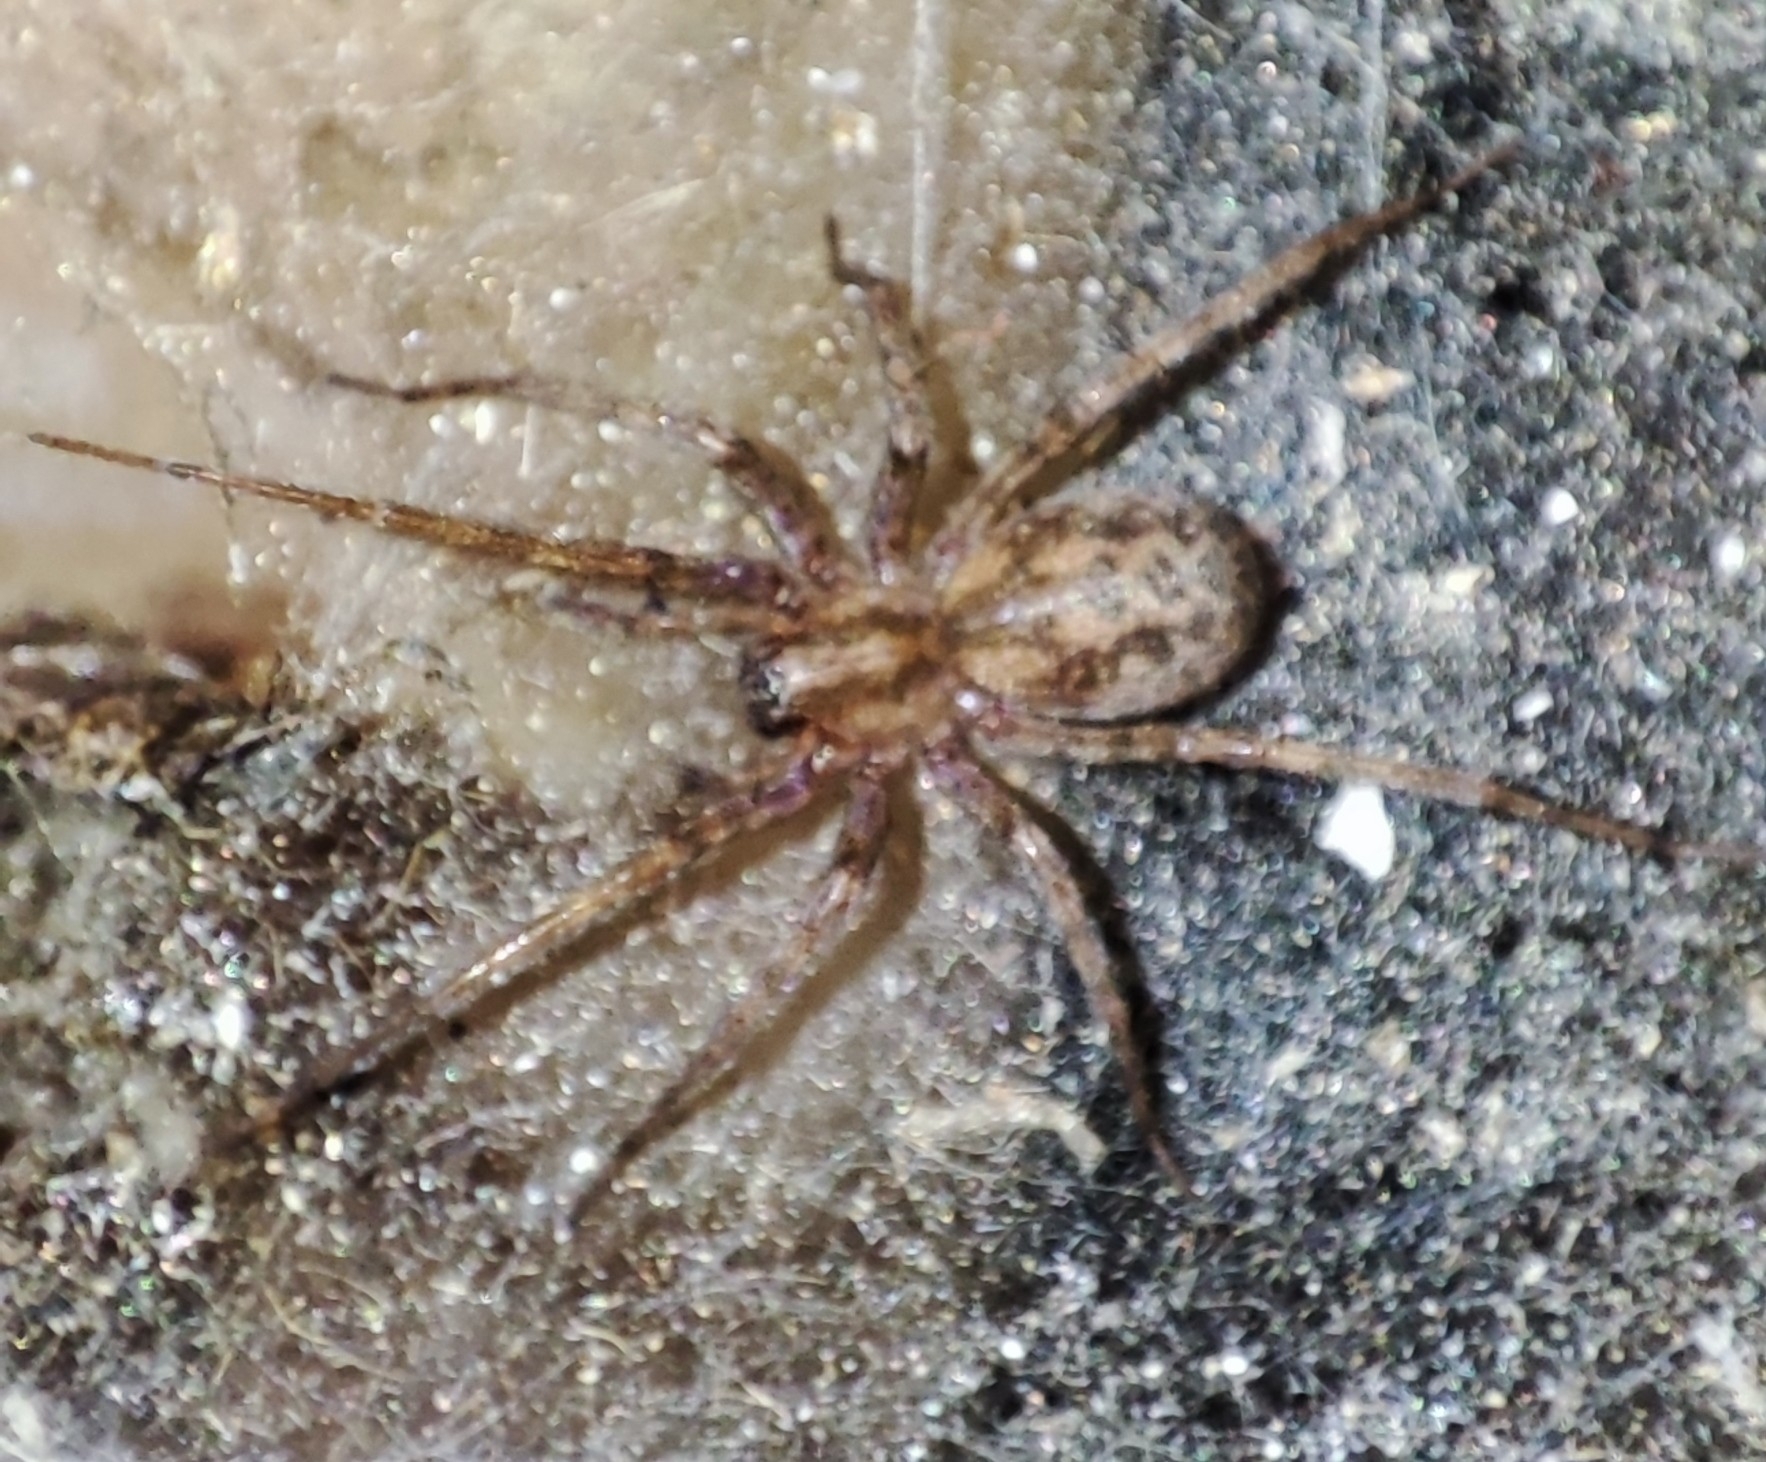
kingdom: Animalia
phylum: Arthropoda
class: Arachnida
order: Araneae
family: Agelenidae
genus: Tegenaria
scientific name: Tegenaria domestica
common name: Barn funnel weaver
